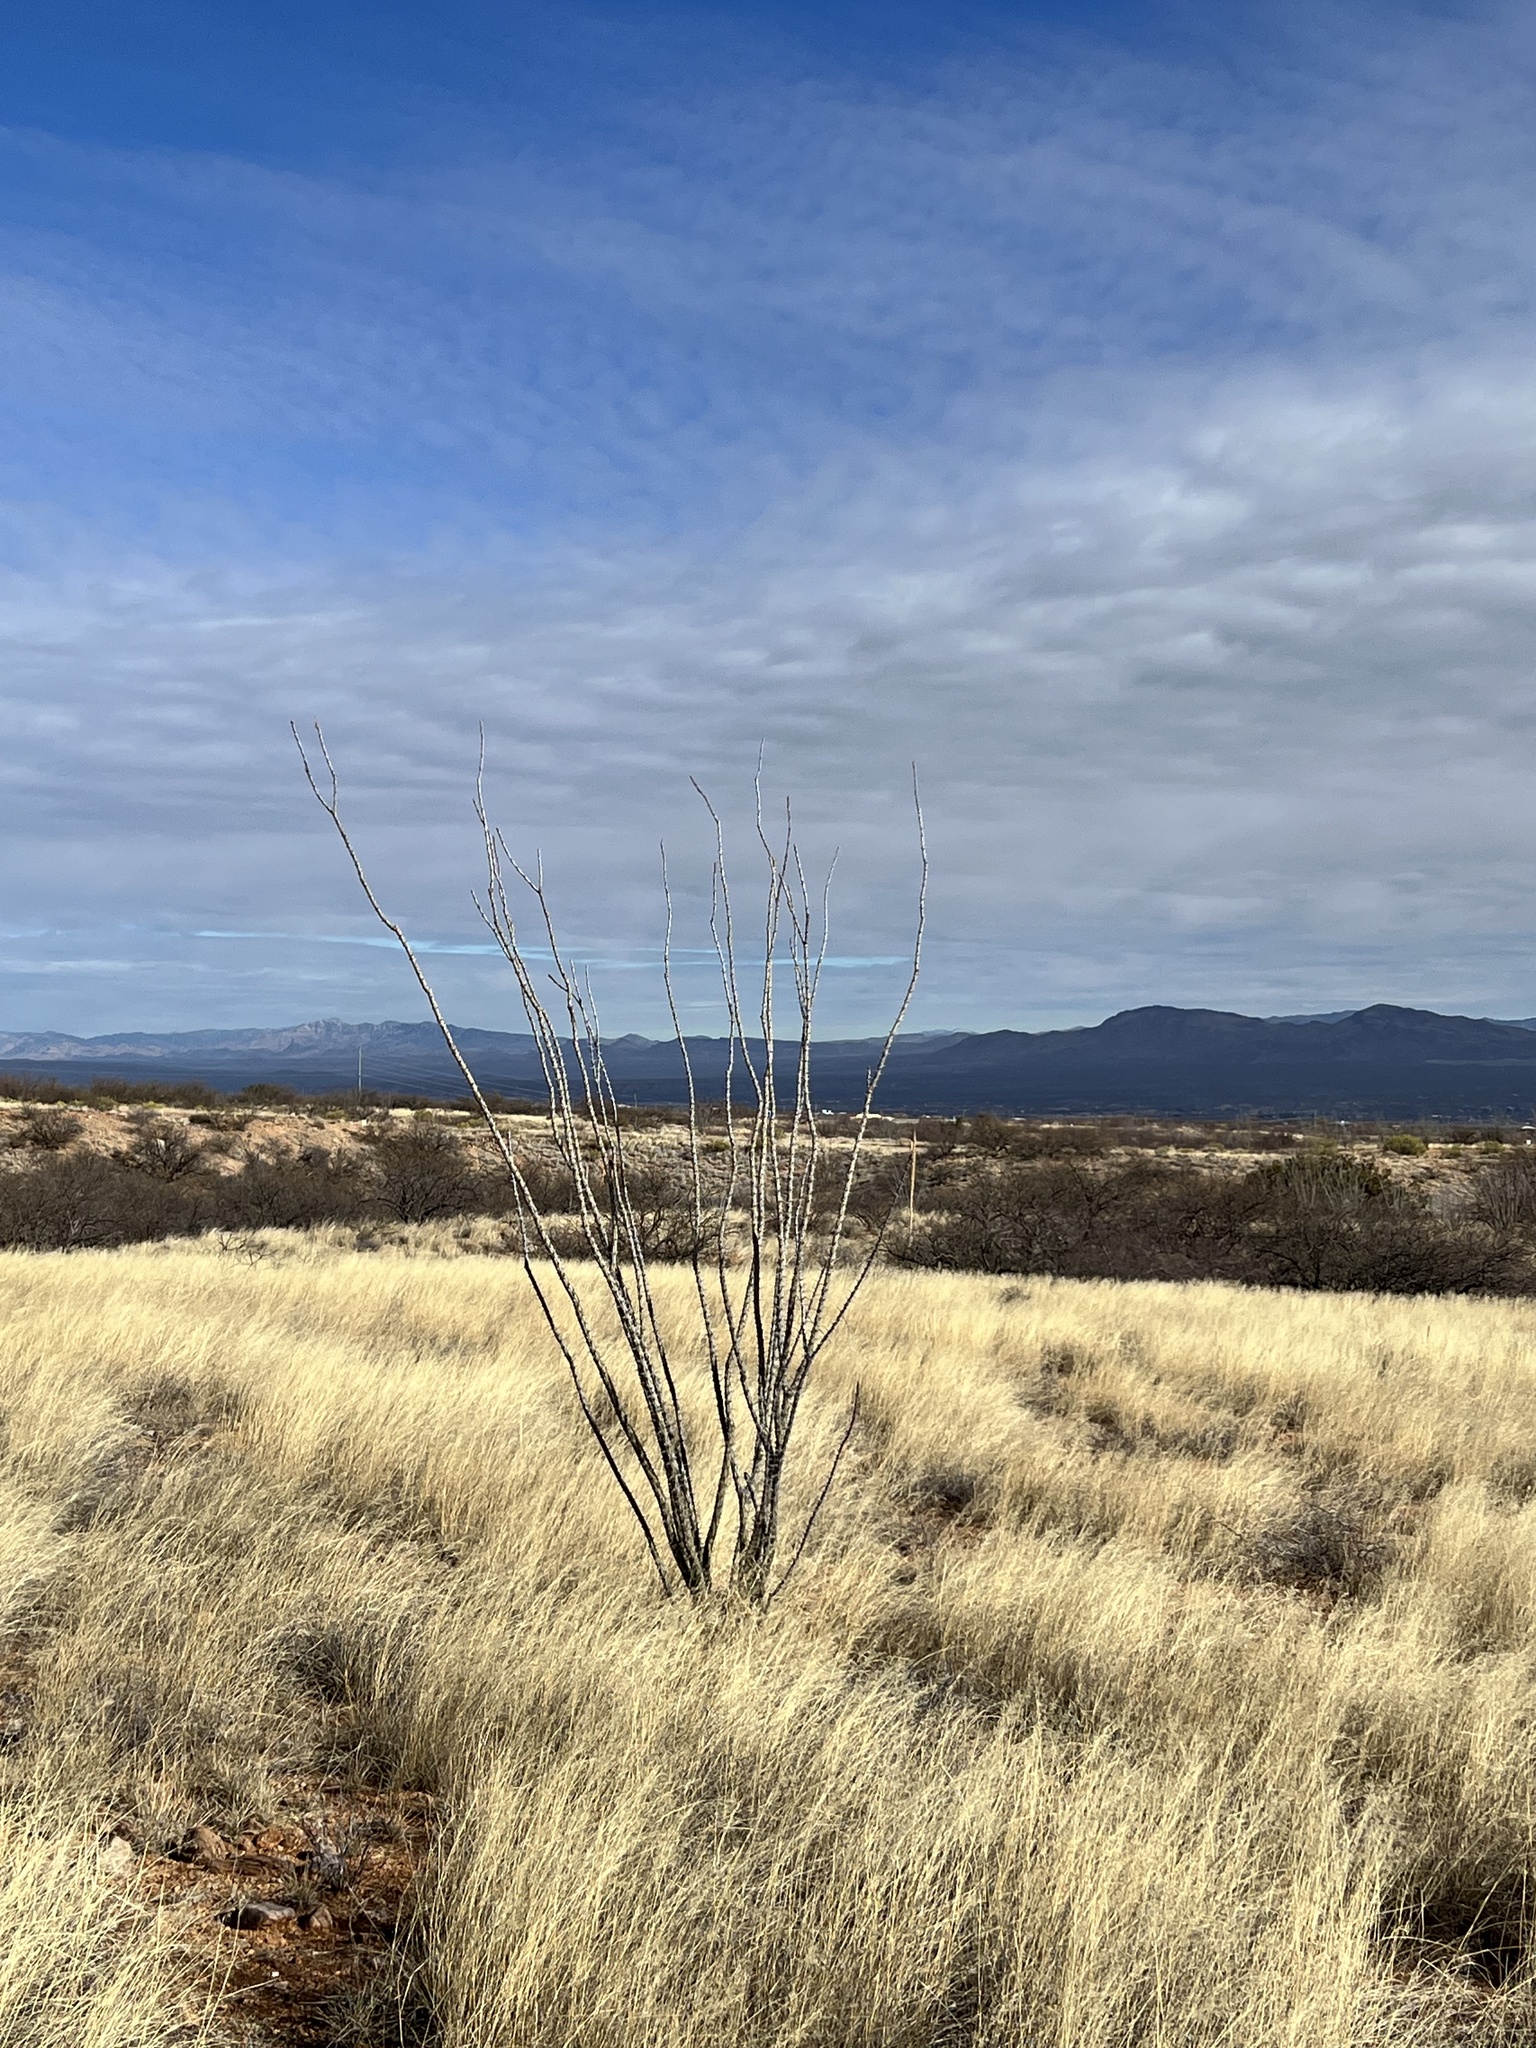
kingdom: Plantae
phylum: Tracheophyta
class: Magnoliopsida
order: Ericales
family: Fouquieriaceae
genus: Fouquieria
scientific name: Fouquieria splendens
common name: Vine-cactus
